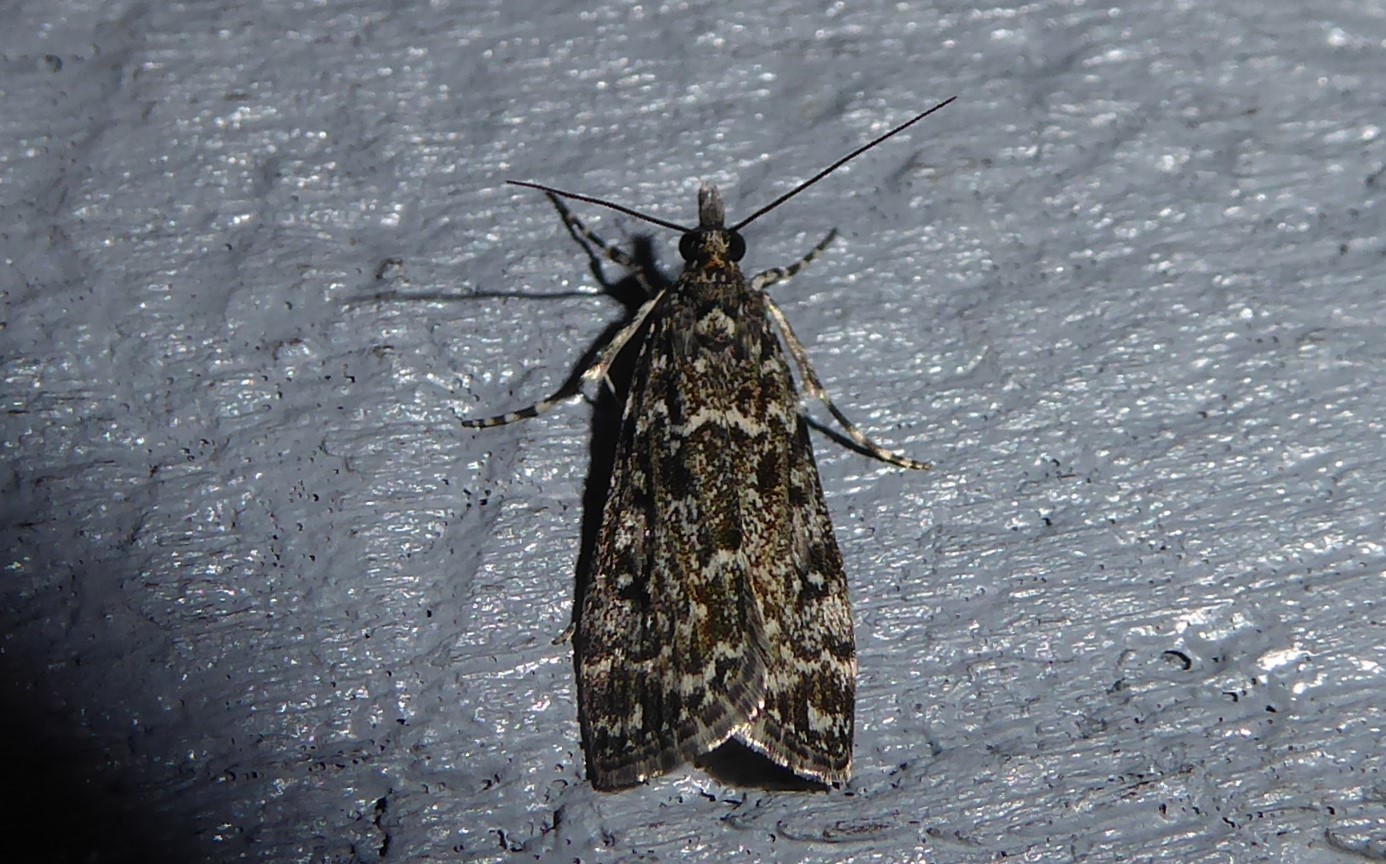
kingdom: Animalia
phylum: Arthropoda
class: Insecta
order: Lepidoptera
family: Crambidae
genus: Eudonia
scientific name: Eudonia philerga
